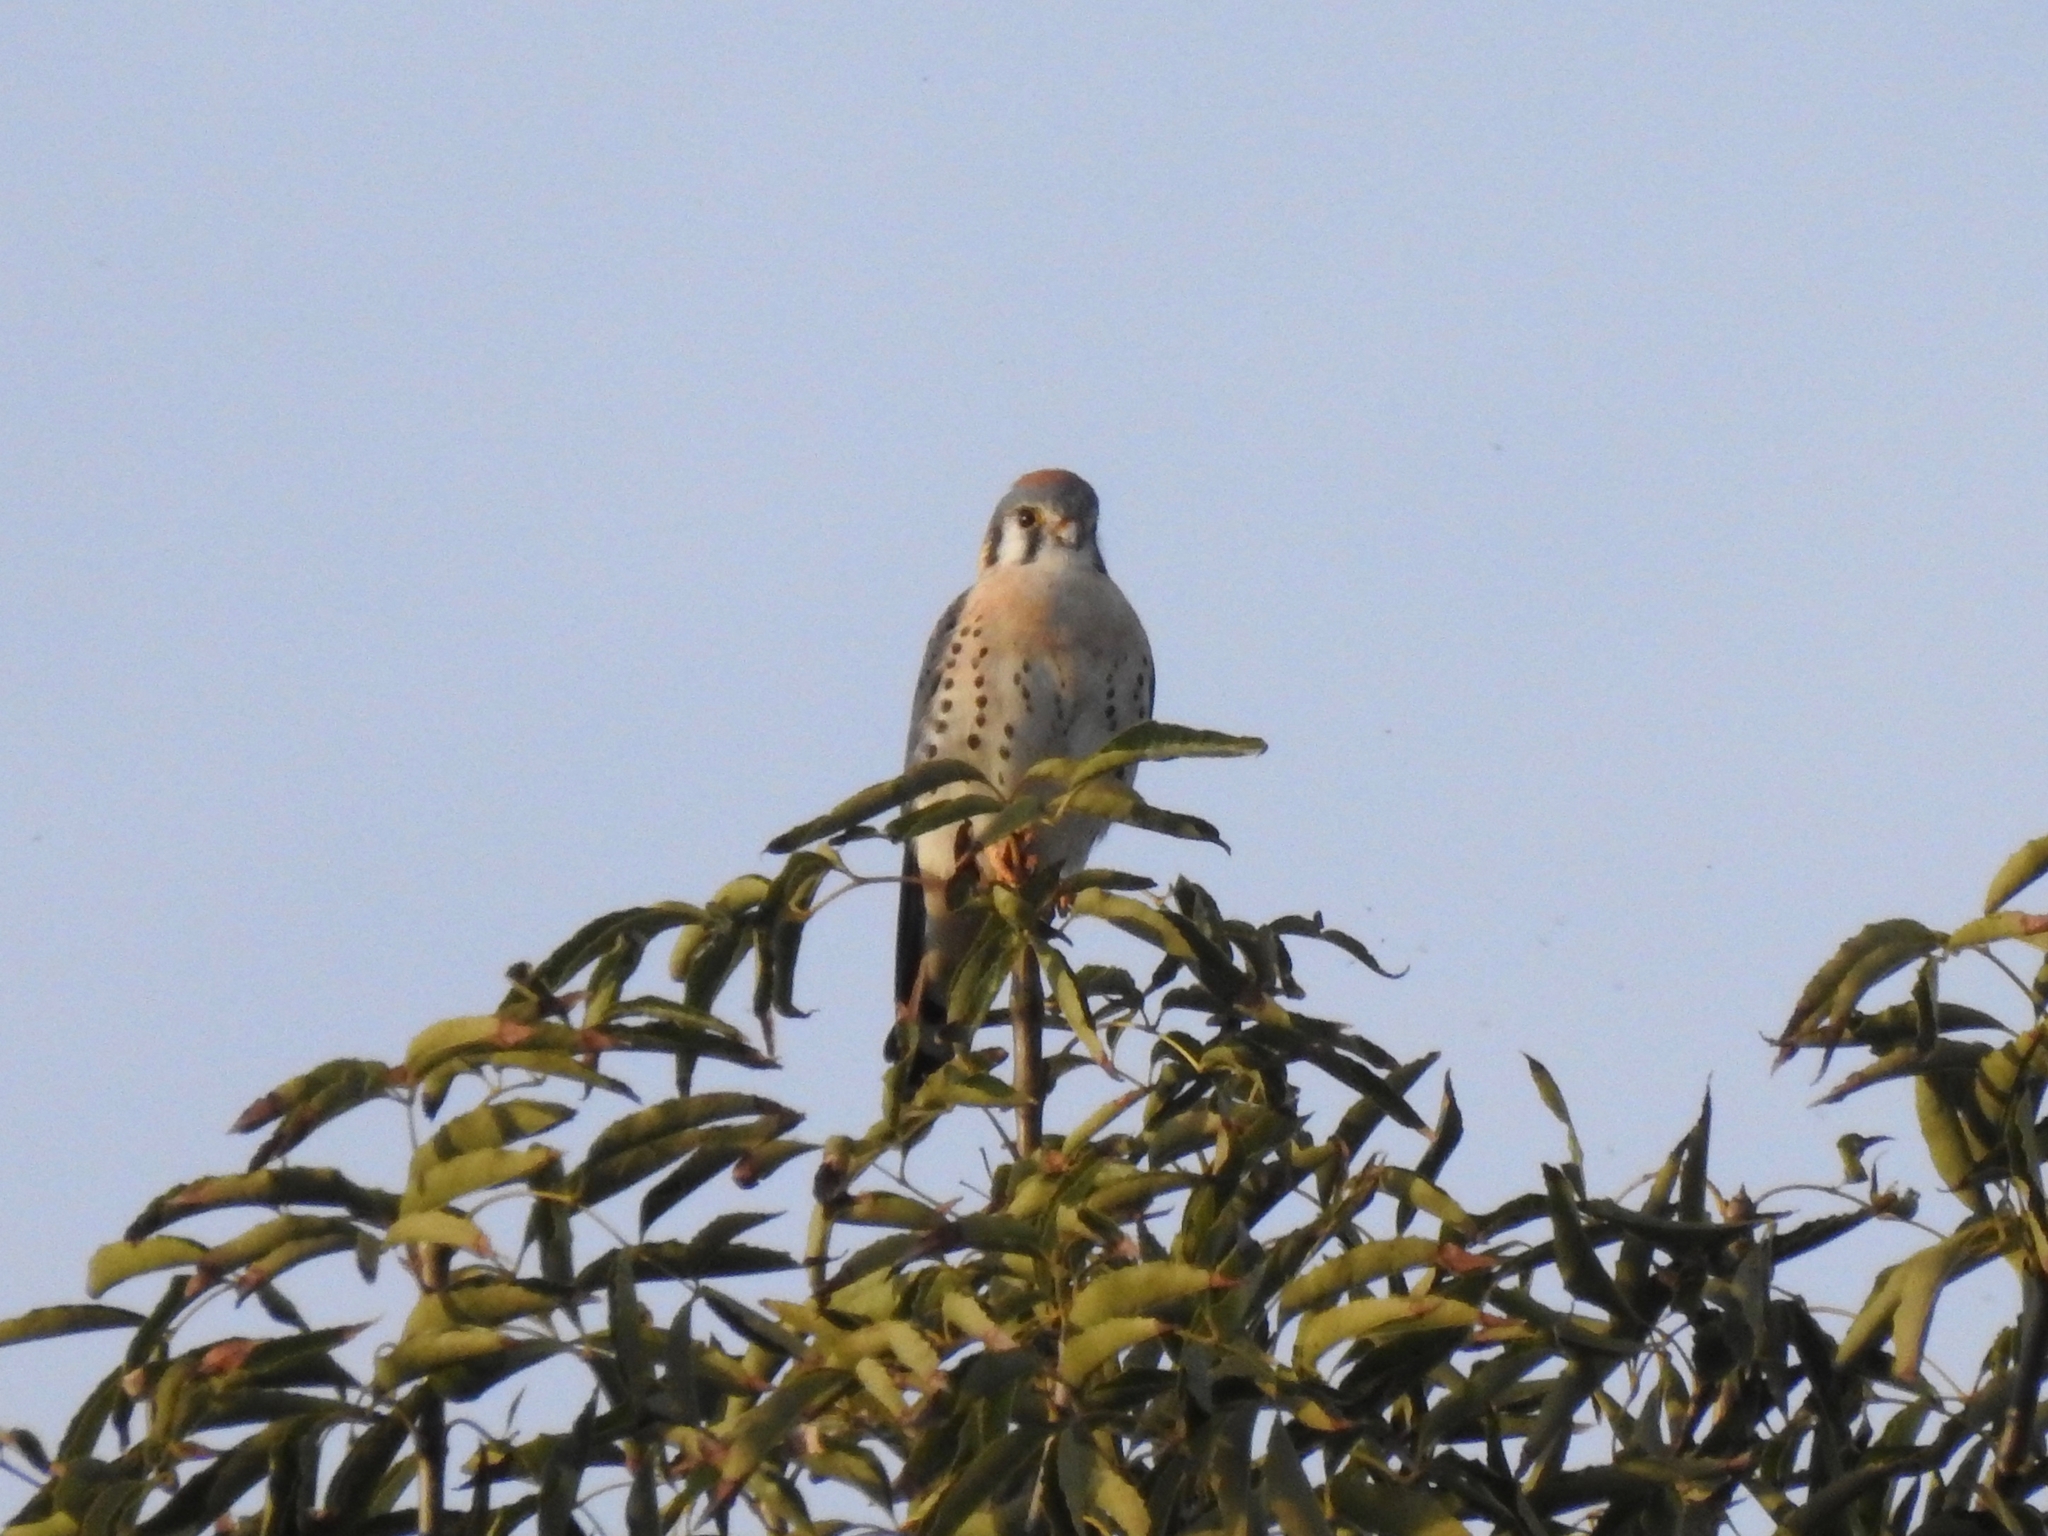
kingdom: Animalia
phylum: Chordata
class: Aves
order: Falconiformes
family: Falconidae
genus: Falco
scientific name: Falco sparverius
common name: American kestrel
